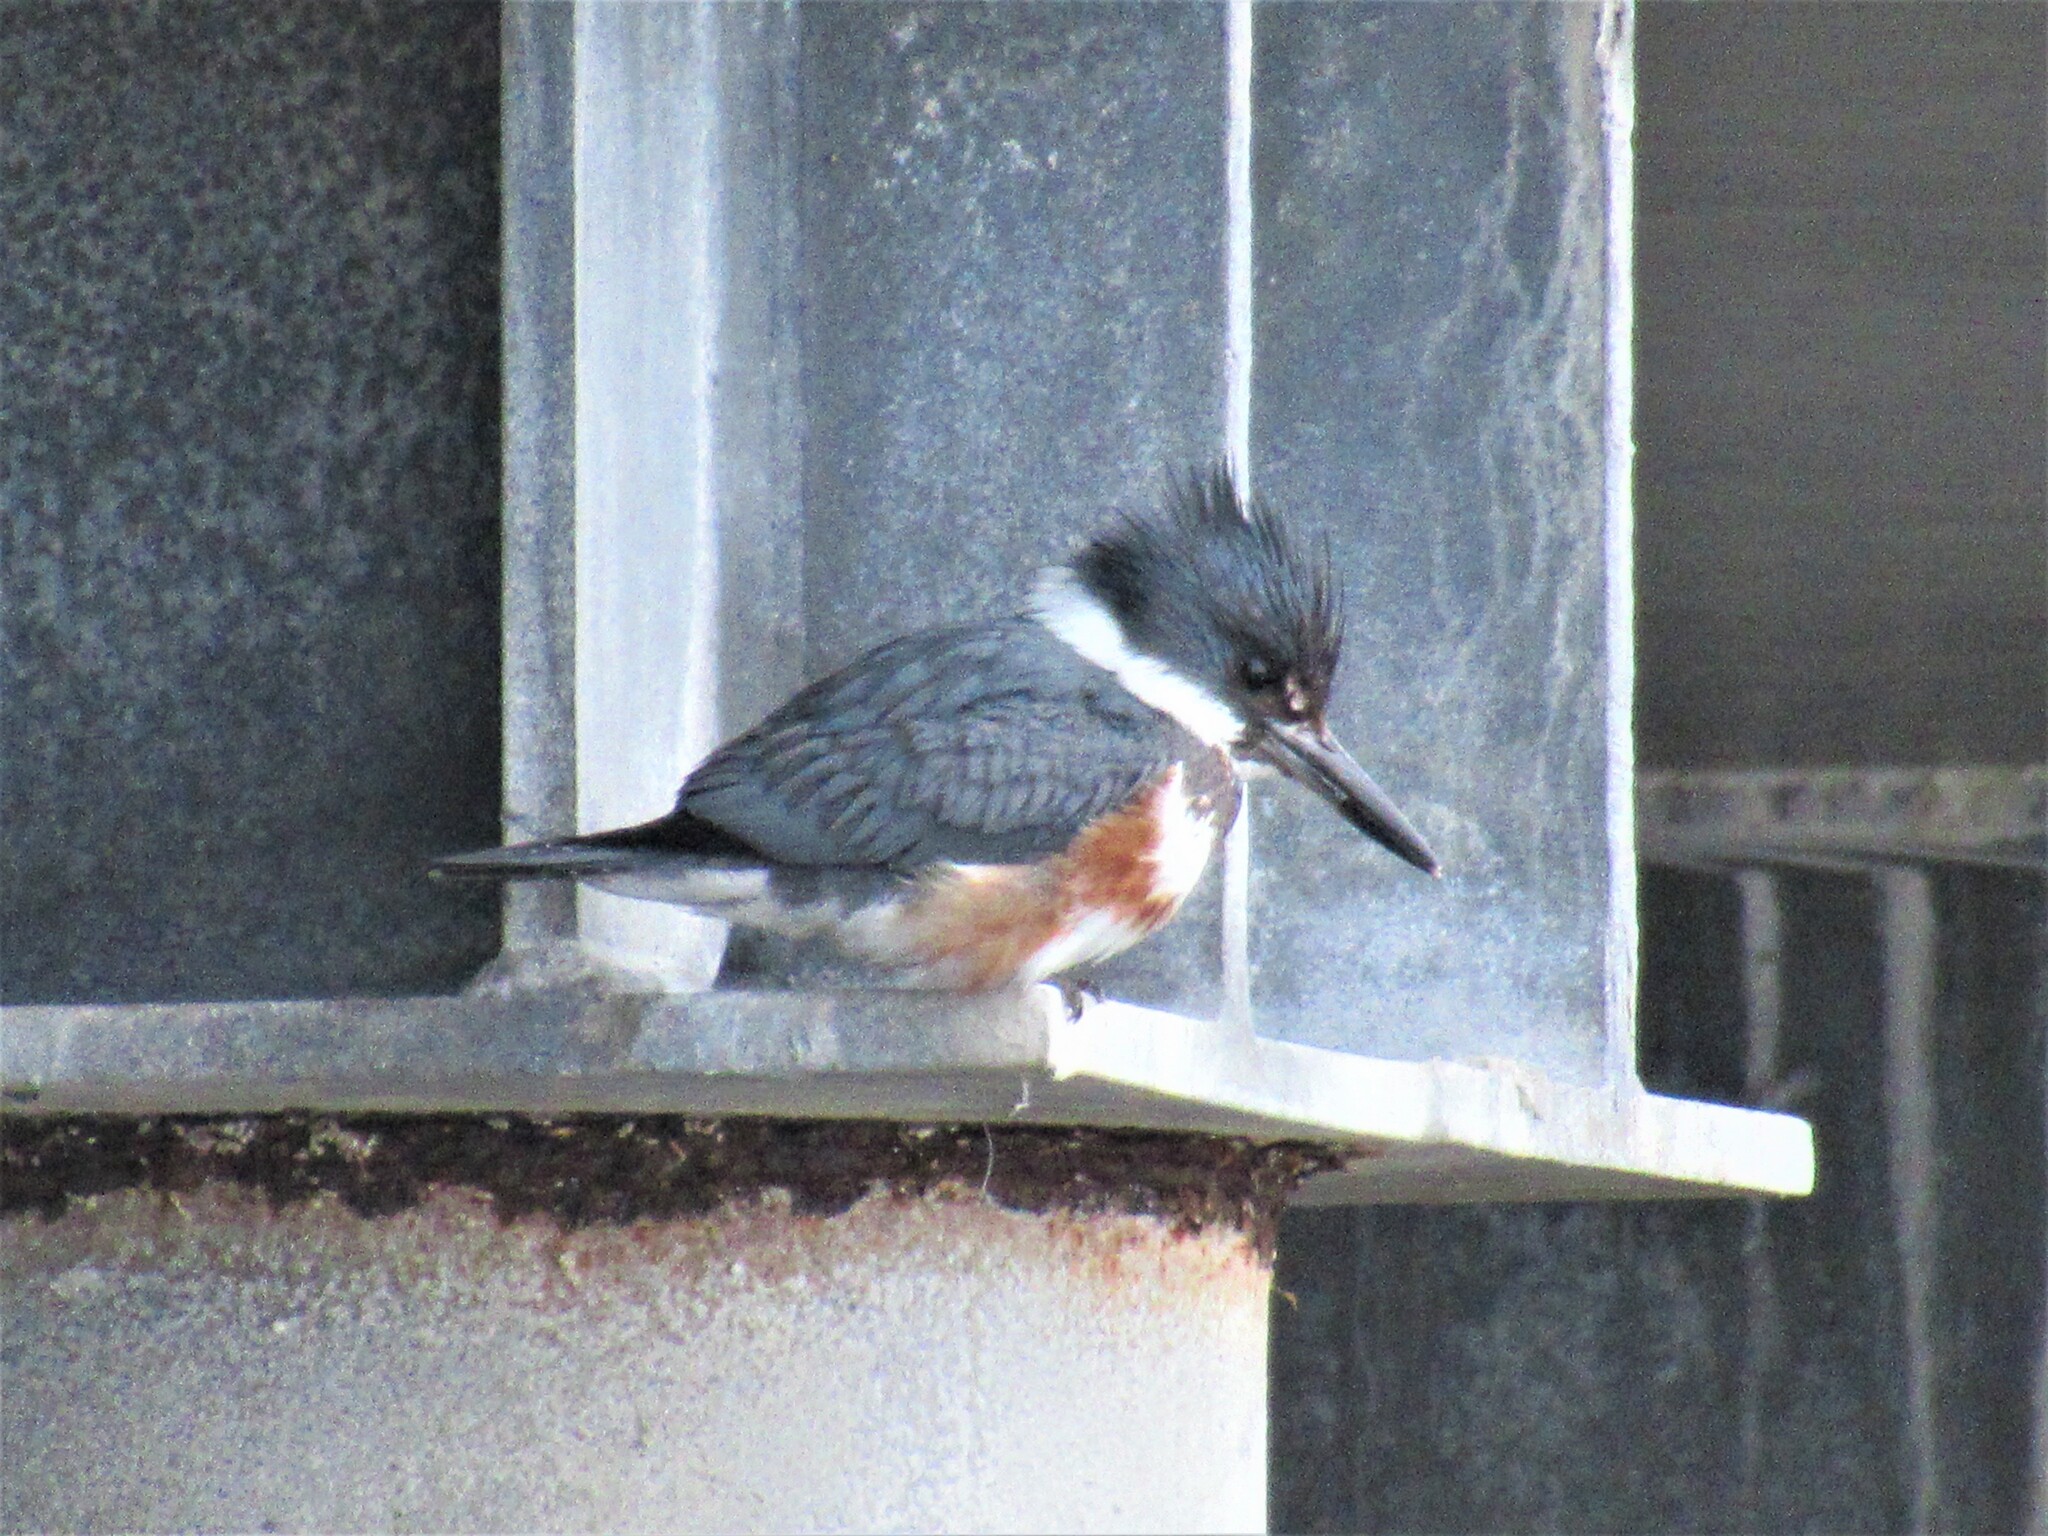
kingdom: Animalia
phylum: Chordata
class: Aves
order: Coraciiformes
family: Alcedinidae
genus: Megaceryle
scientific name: Megaceryle alcyon
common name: Belted kingfisher
